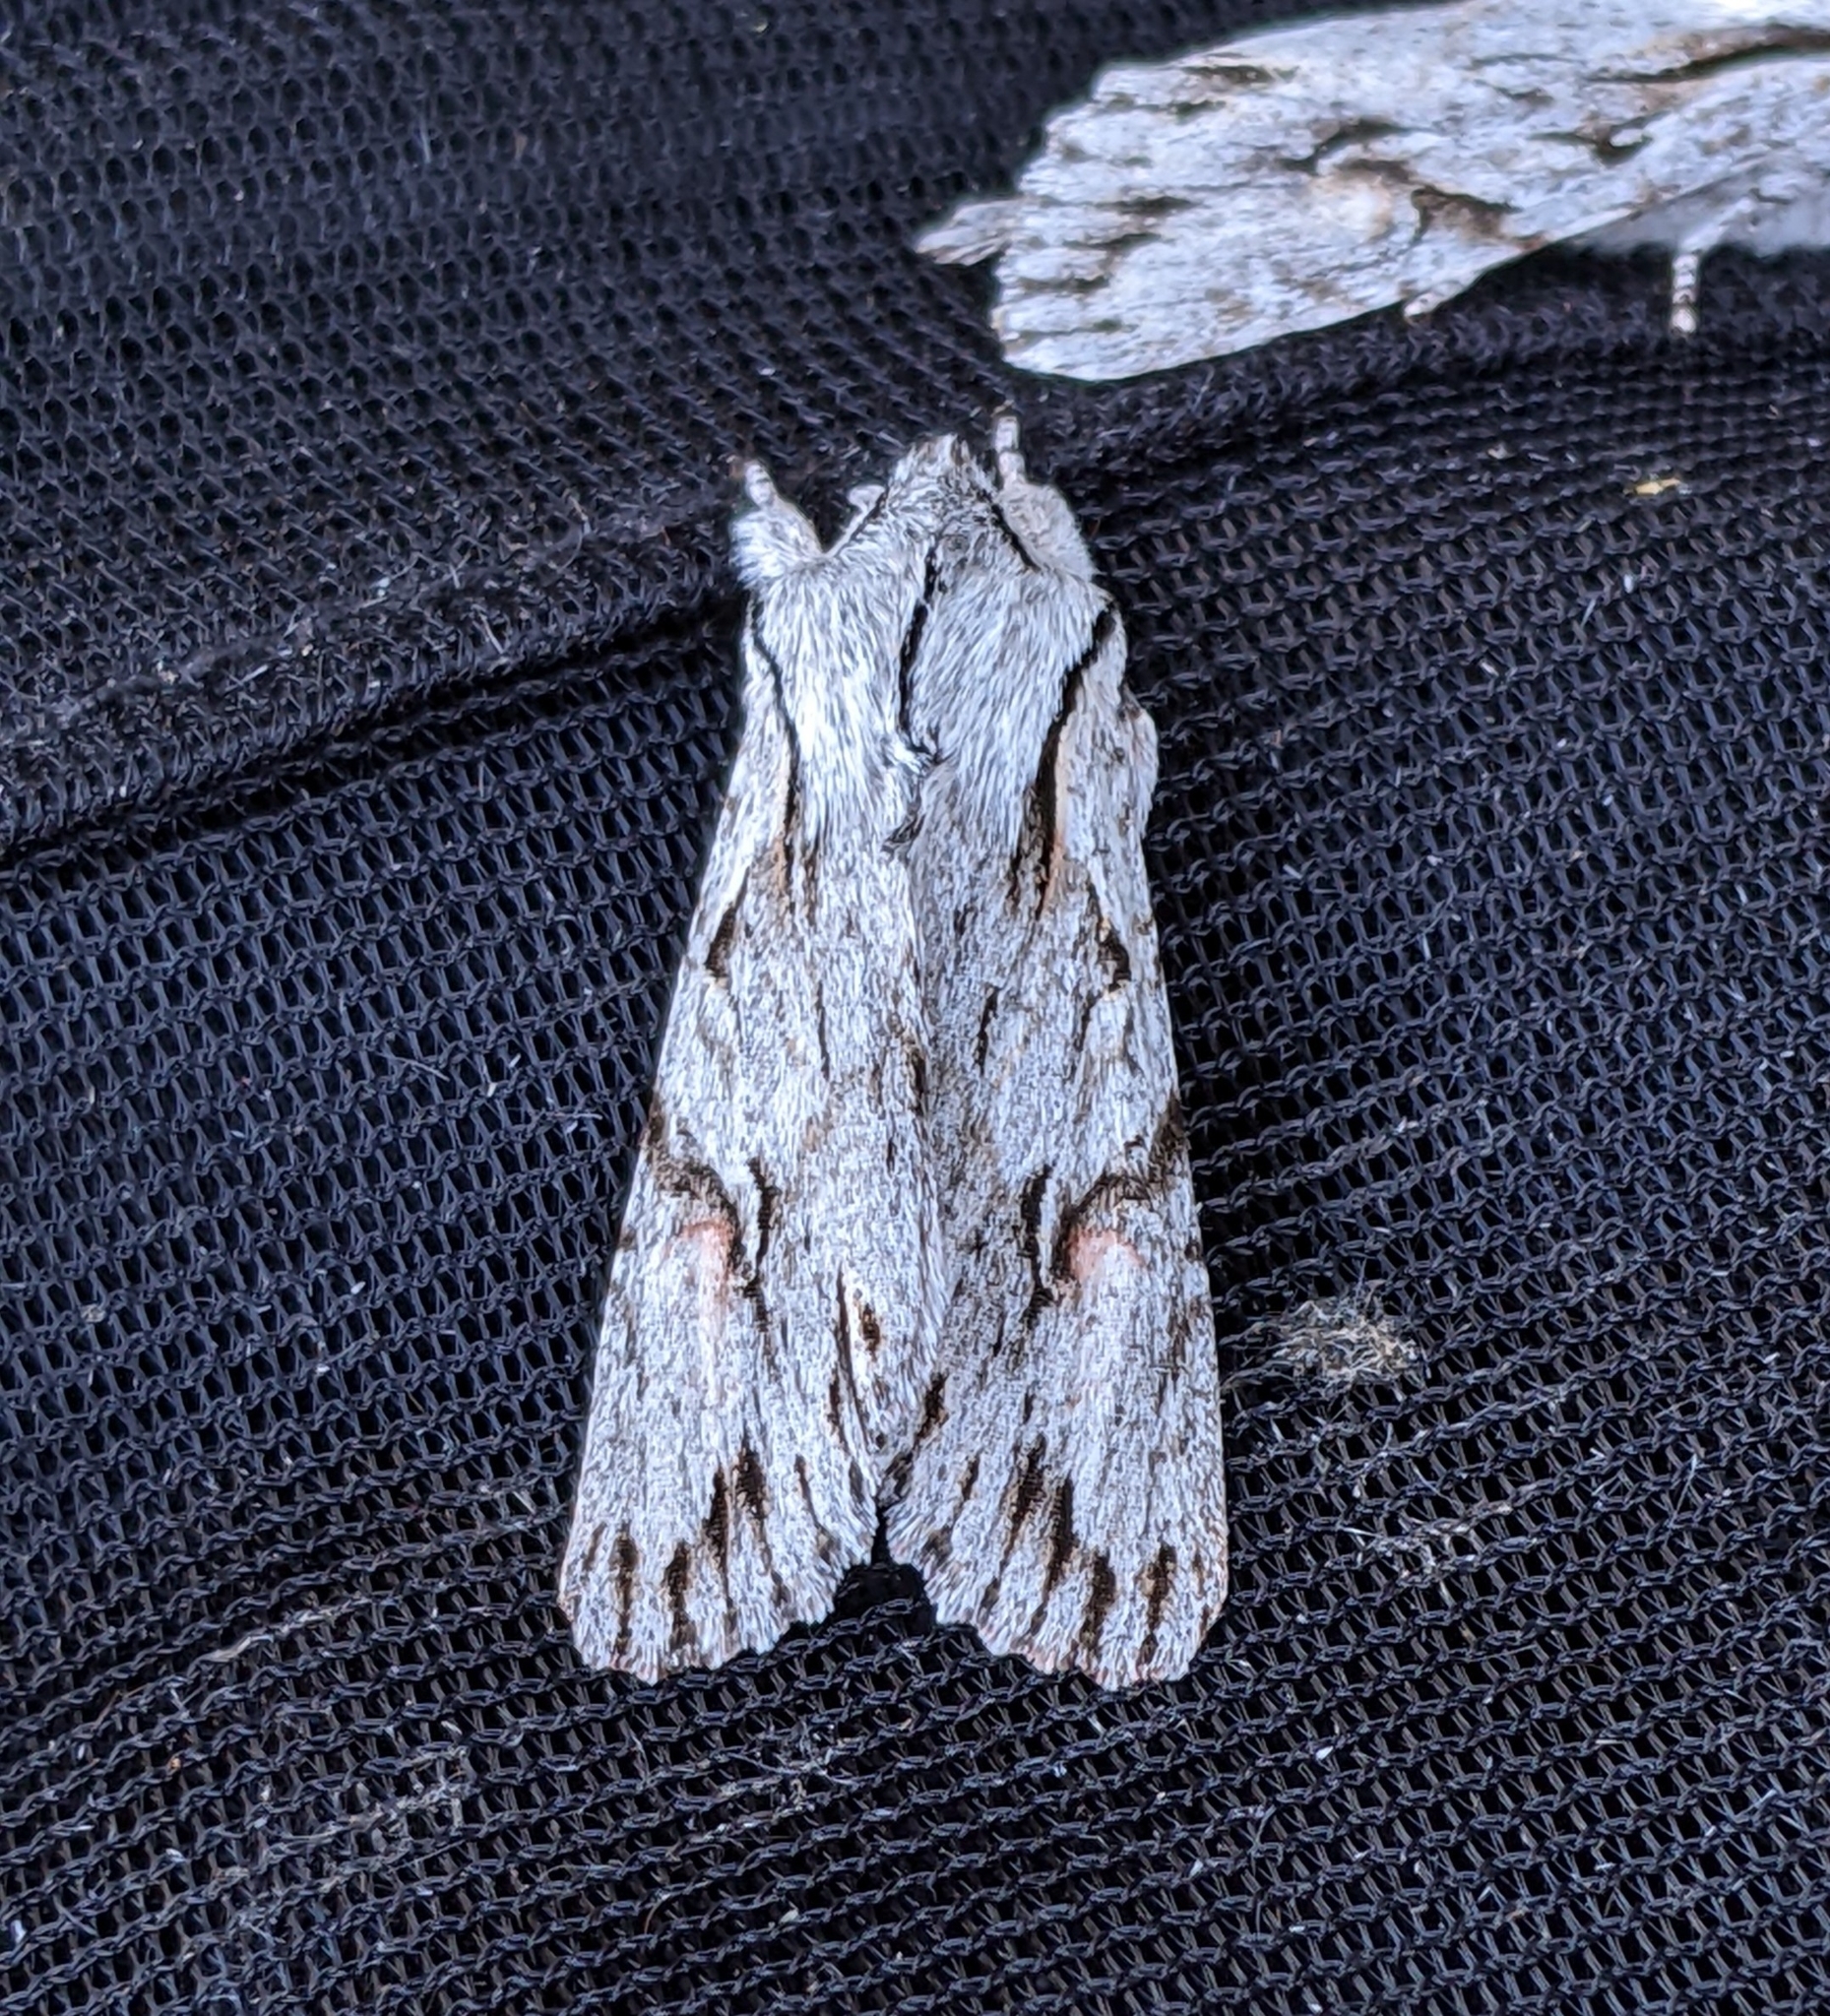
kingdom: Animalia
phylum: Arthropoda
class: Insecta
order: Lepidoptera
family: Noctuidae
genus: Egira
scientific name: Egira crucialis
